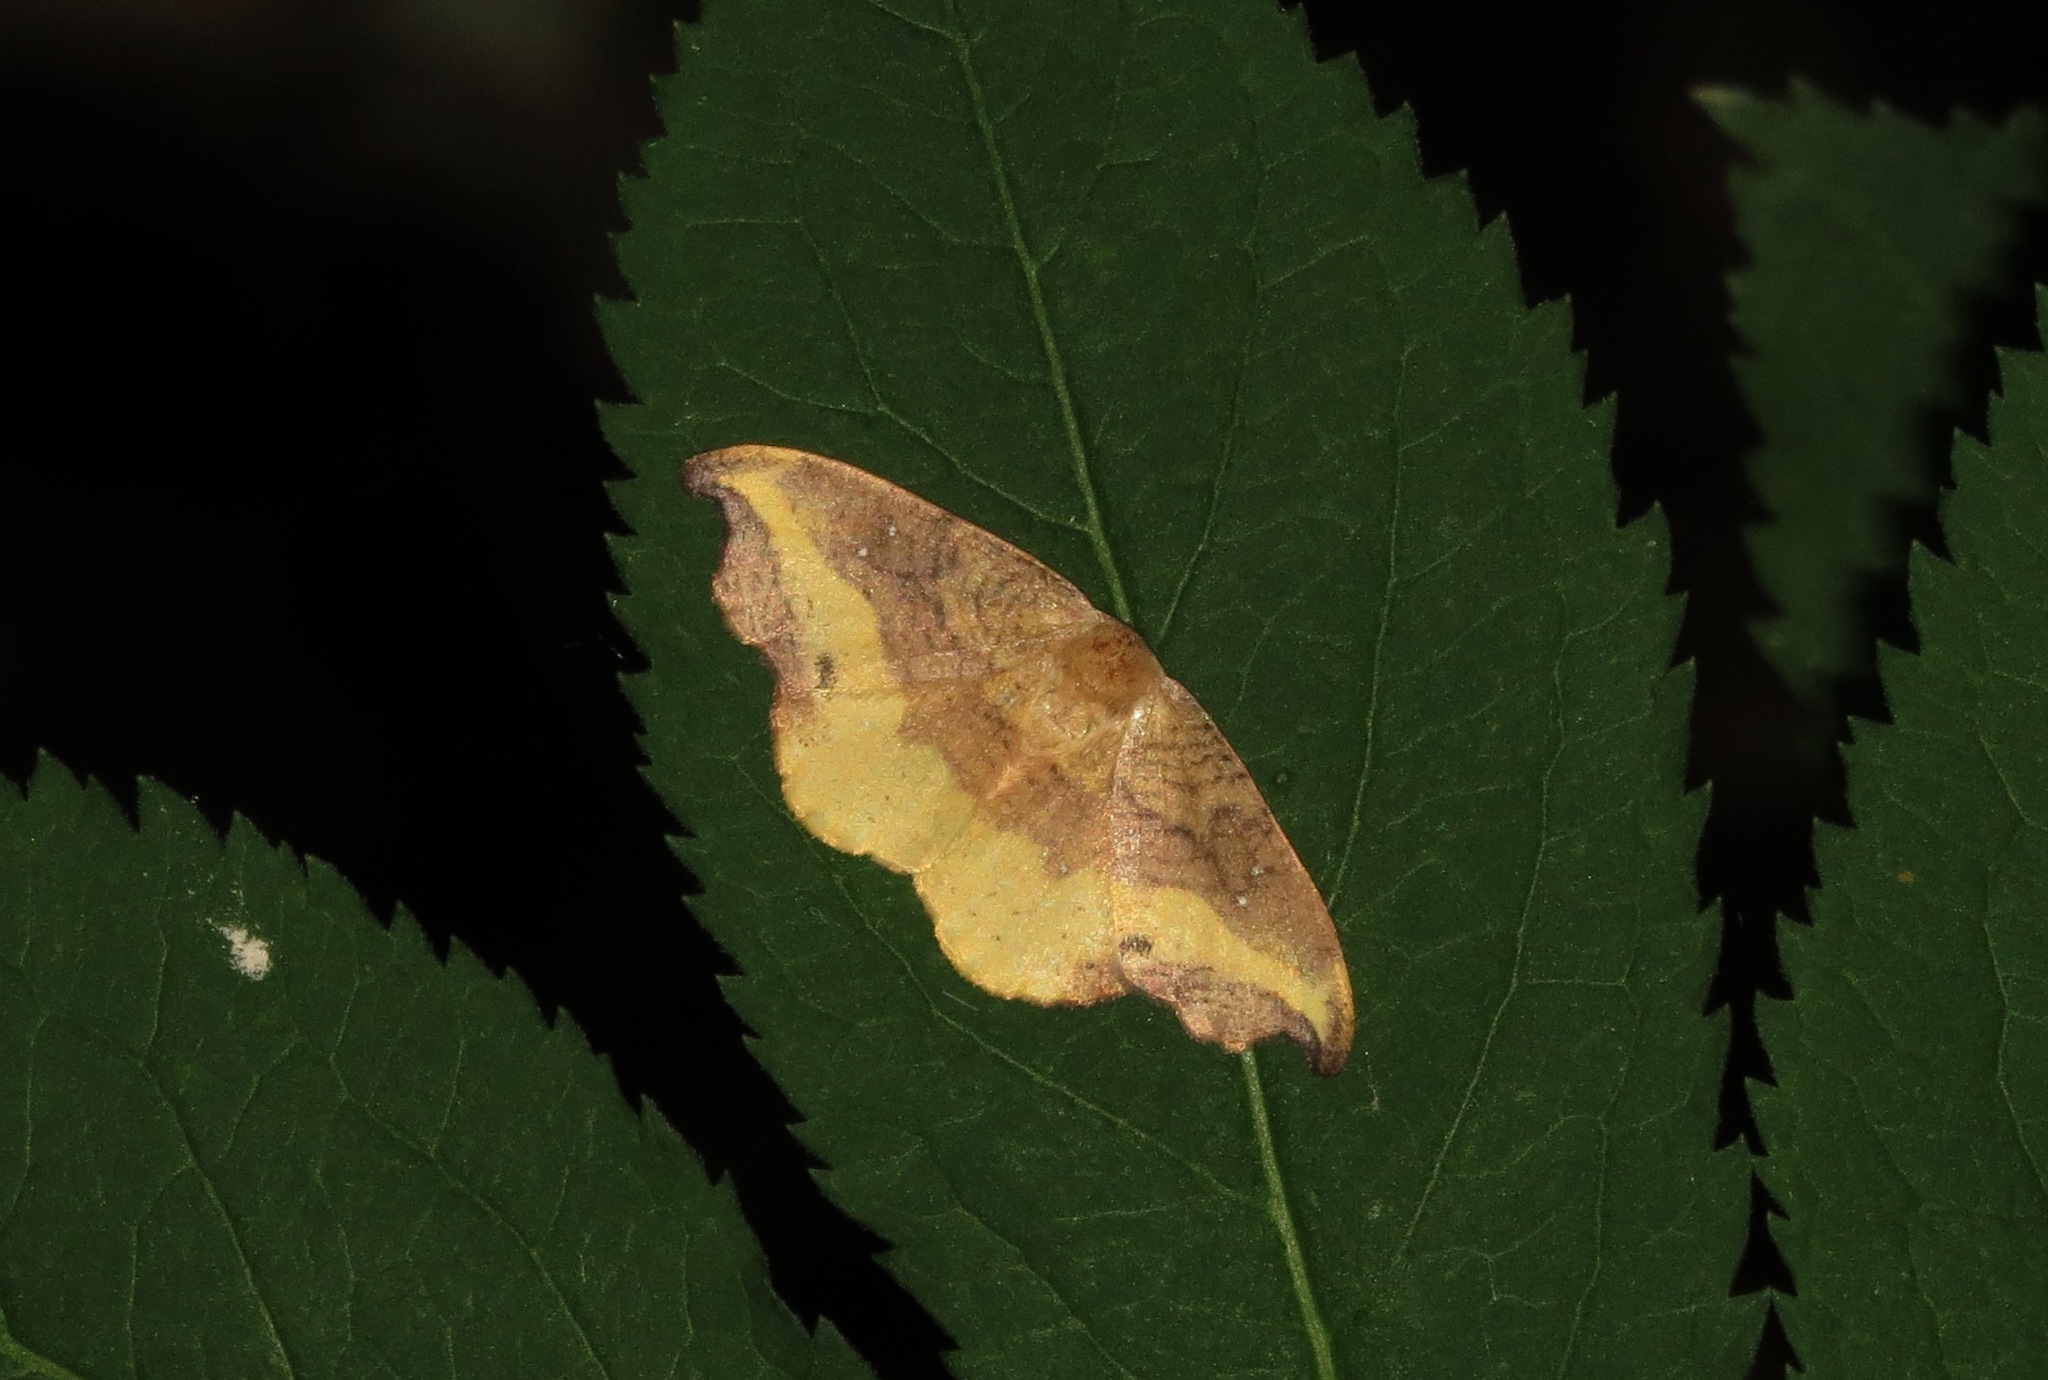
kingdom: Animalia
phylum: Arthropoda
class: Insecta
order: Lepidoptera
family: Drepanidae
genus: Oreta
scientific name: Oreta rosea
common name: Rose hooktip
